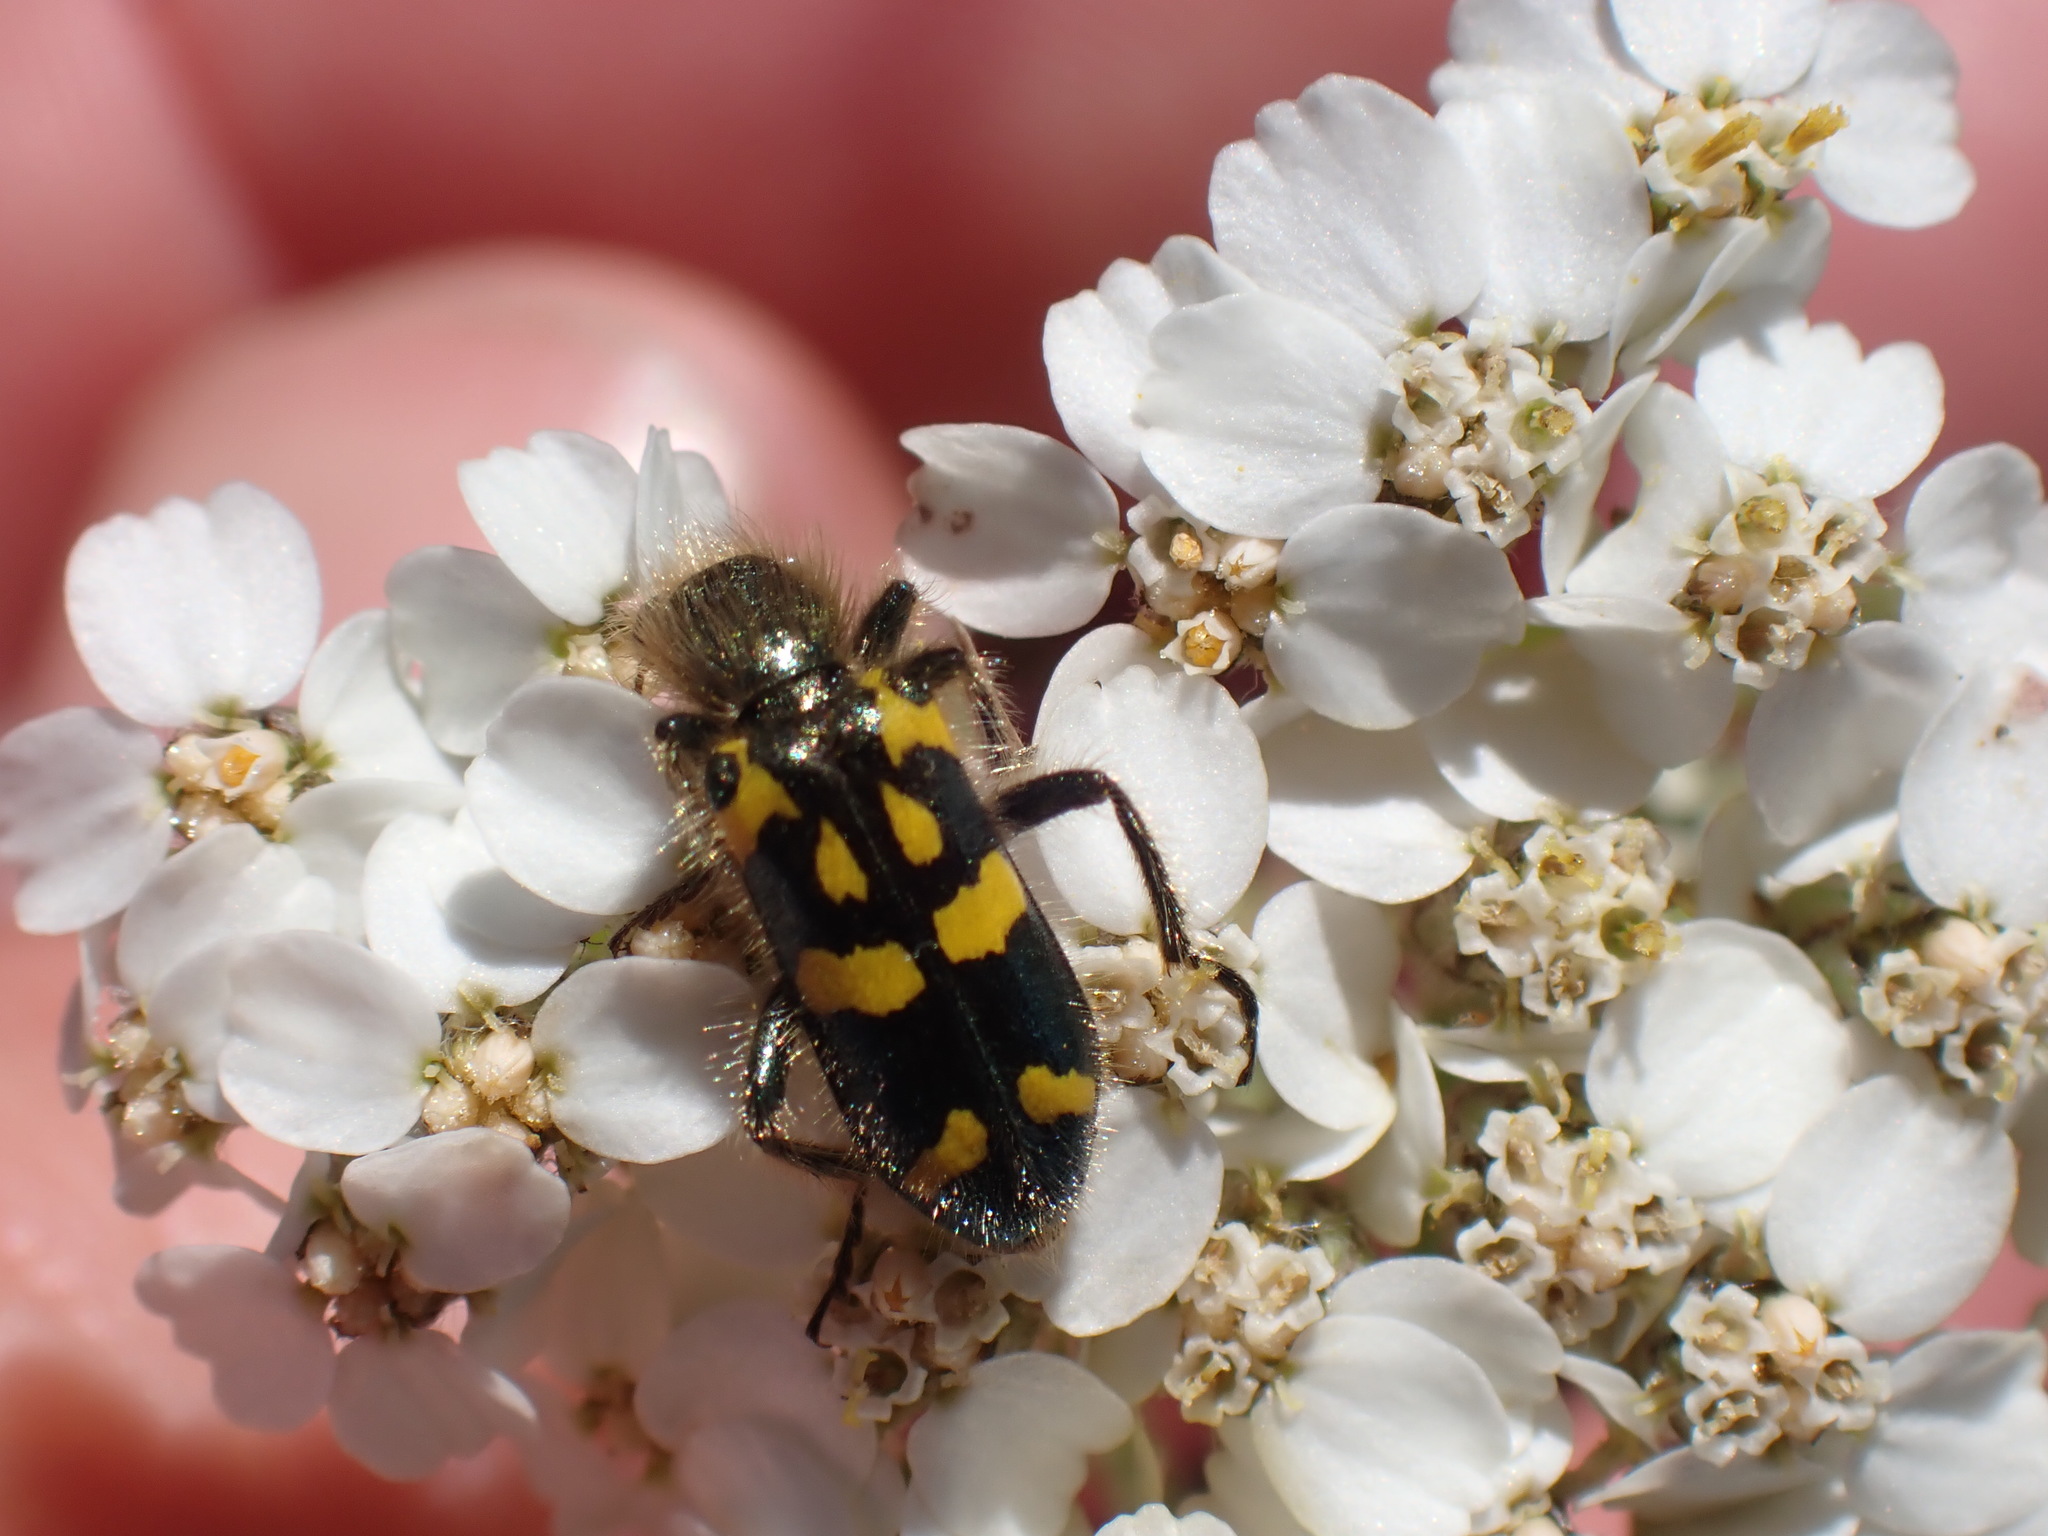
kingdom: Animalia
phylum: Arthropoda
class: Insecta
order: Coleoptera
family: Cleridae
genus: Trichodes
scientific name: Trichodes ornatus
